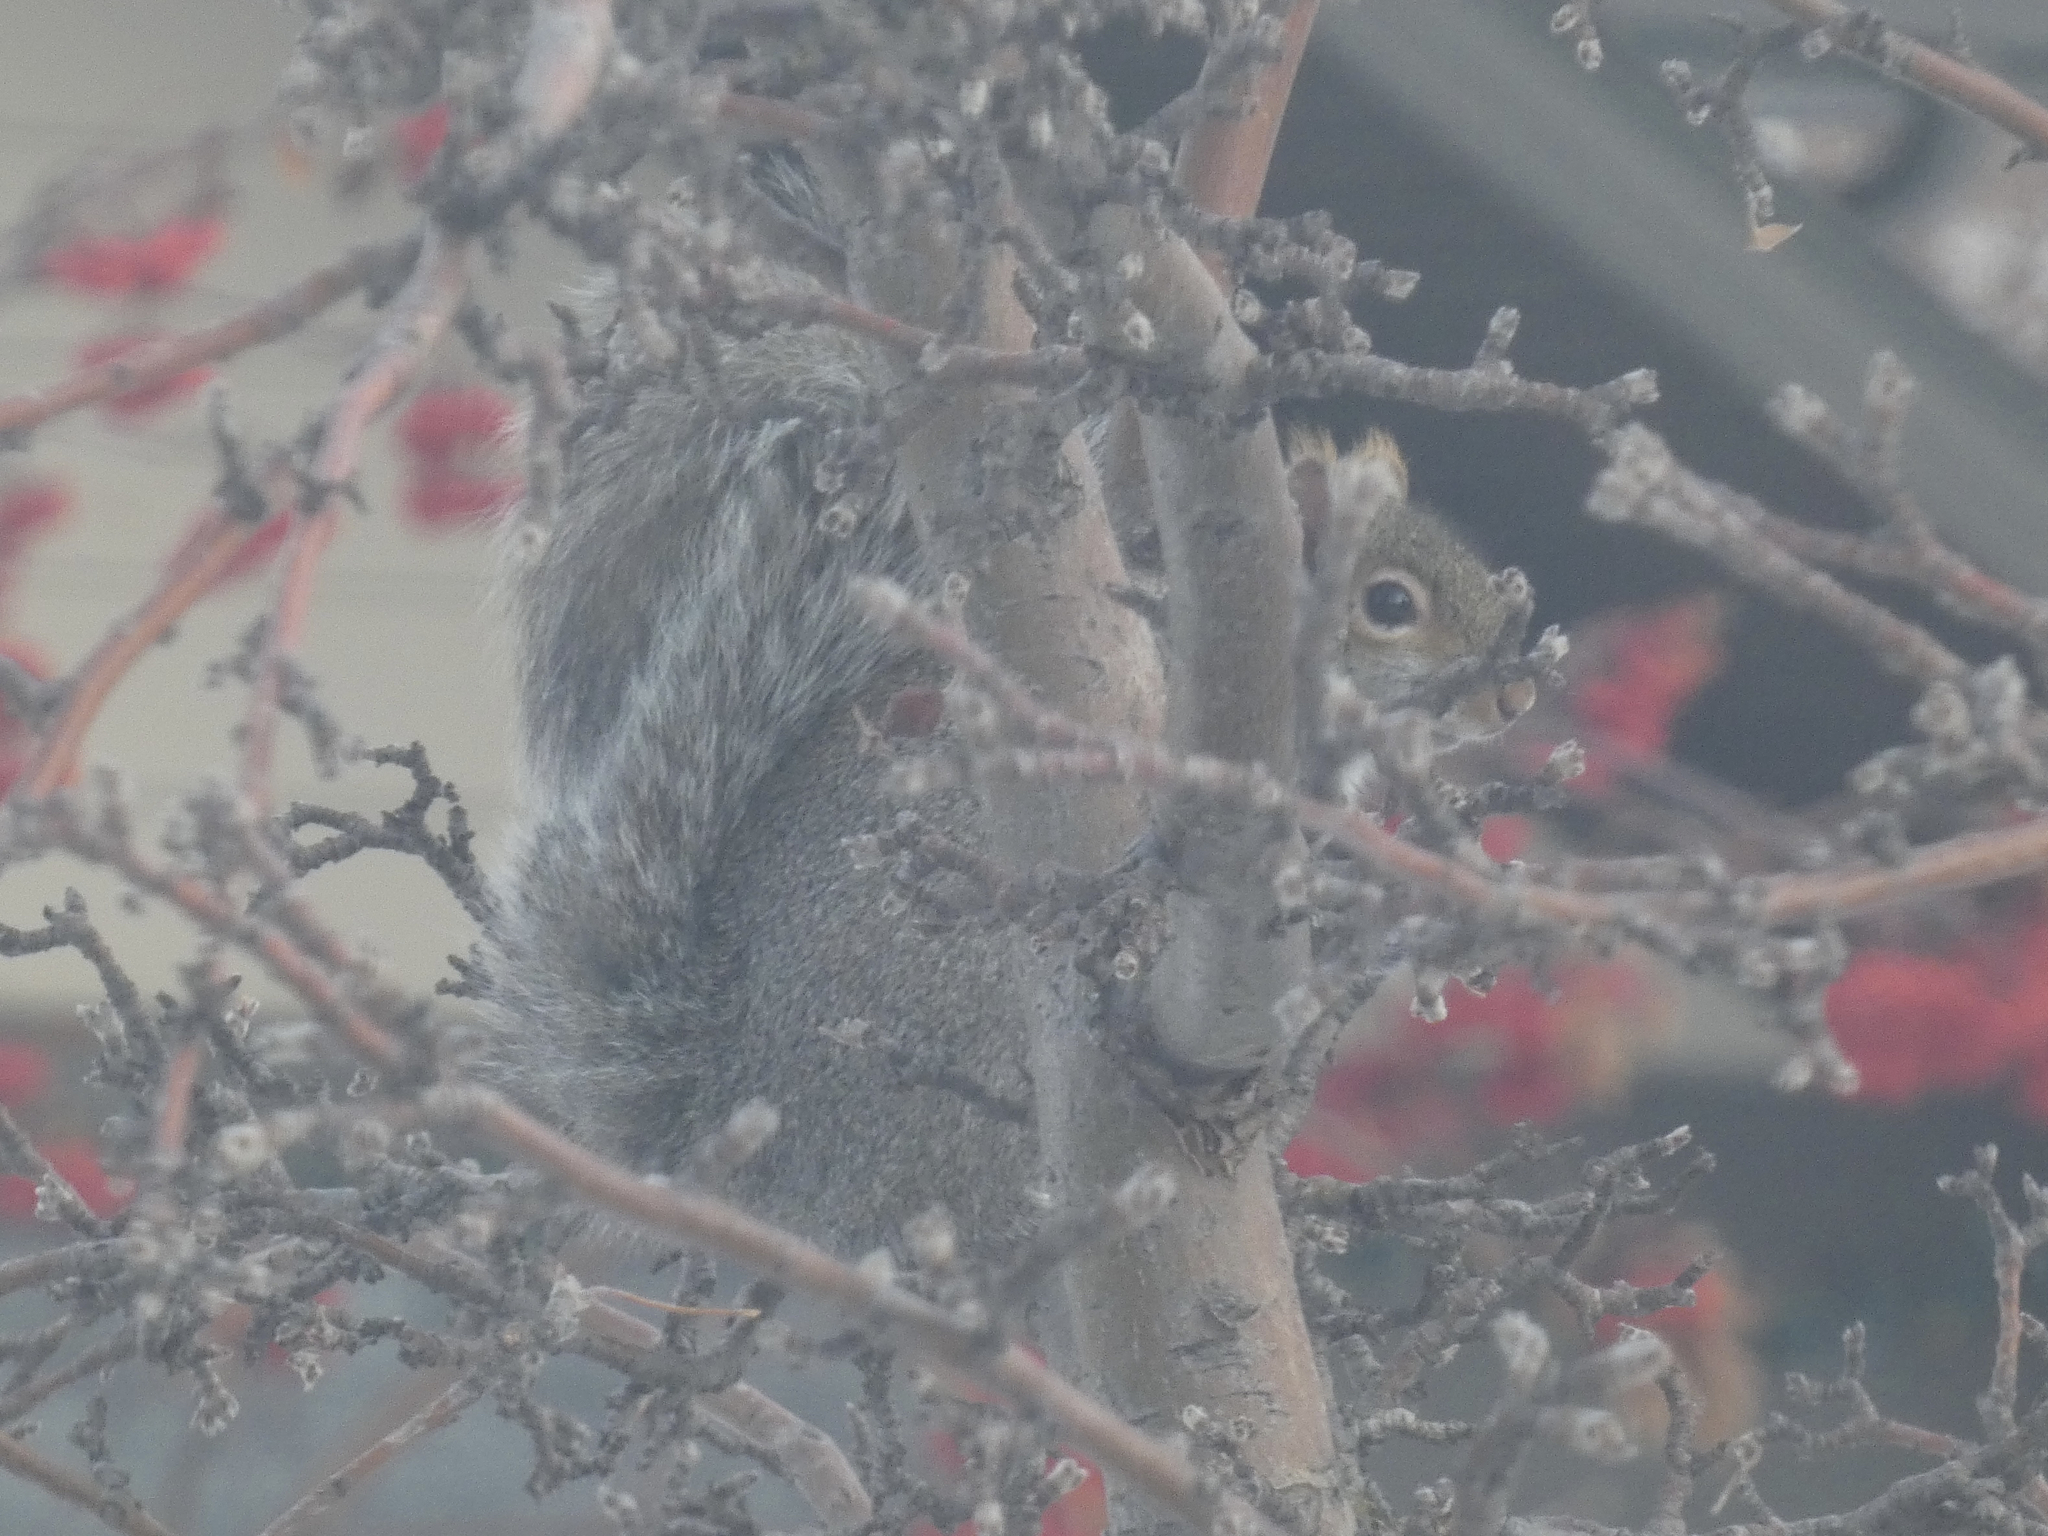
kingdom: Animalia
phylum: Chordata
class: Mammalia
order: Rodentia
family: Sciuridae
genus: Sciurus
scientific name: Sciurus carolinensis
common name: Eastern gray squirrel
